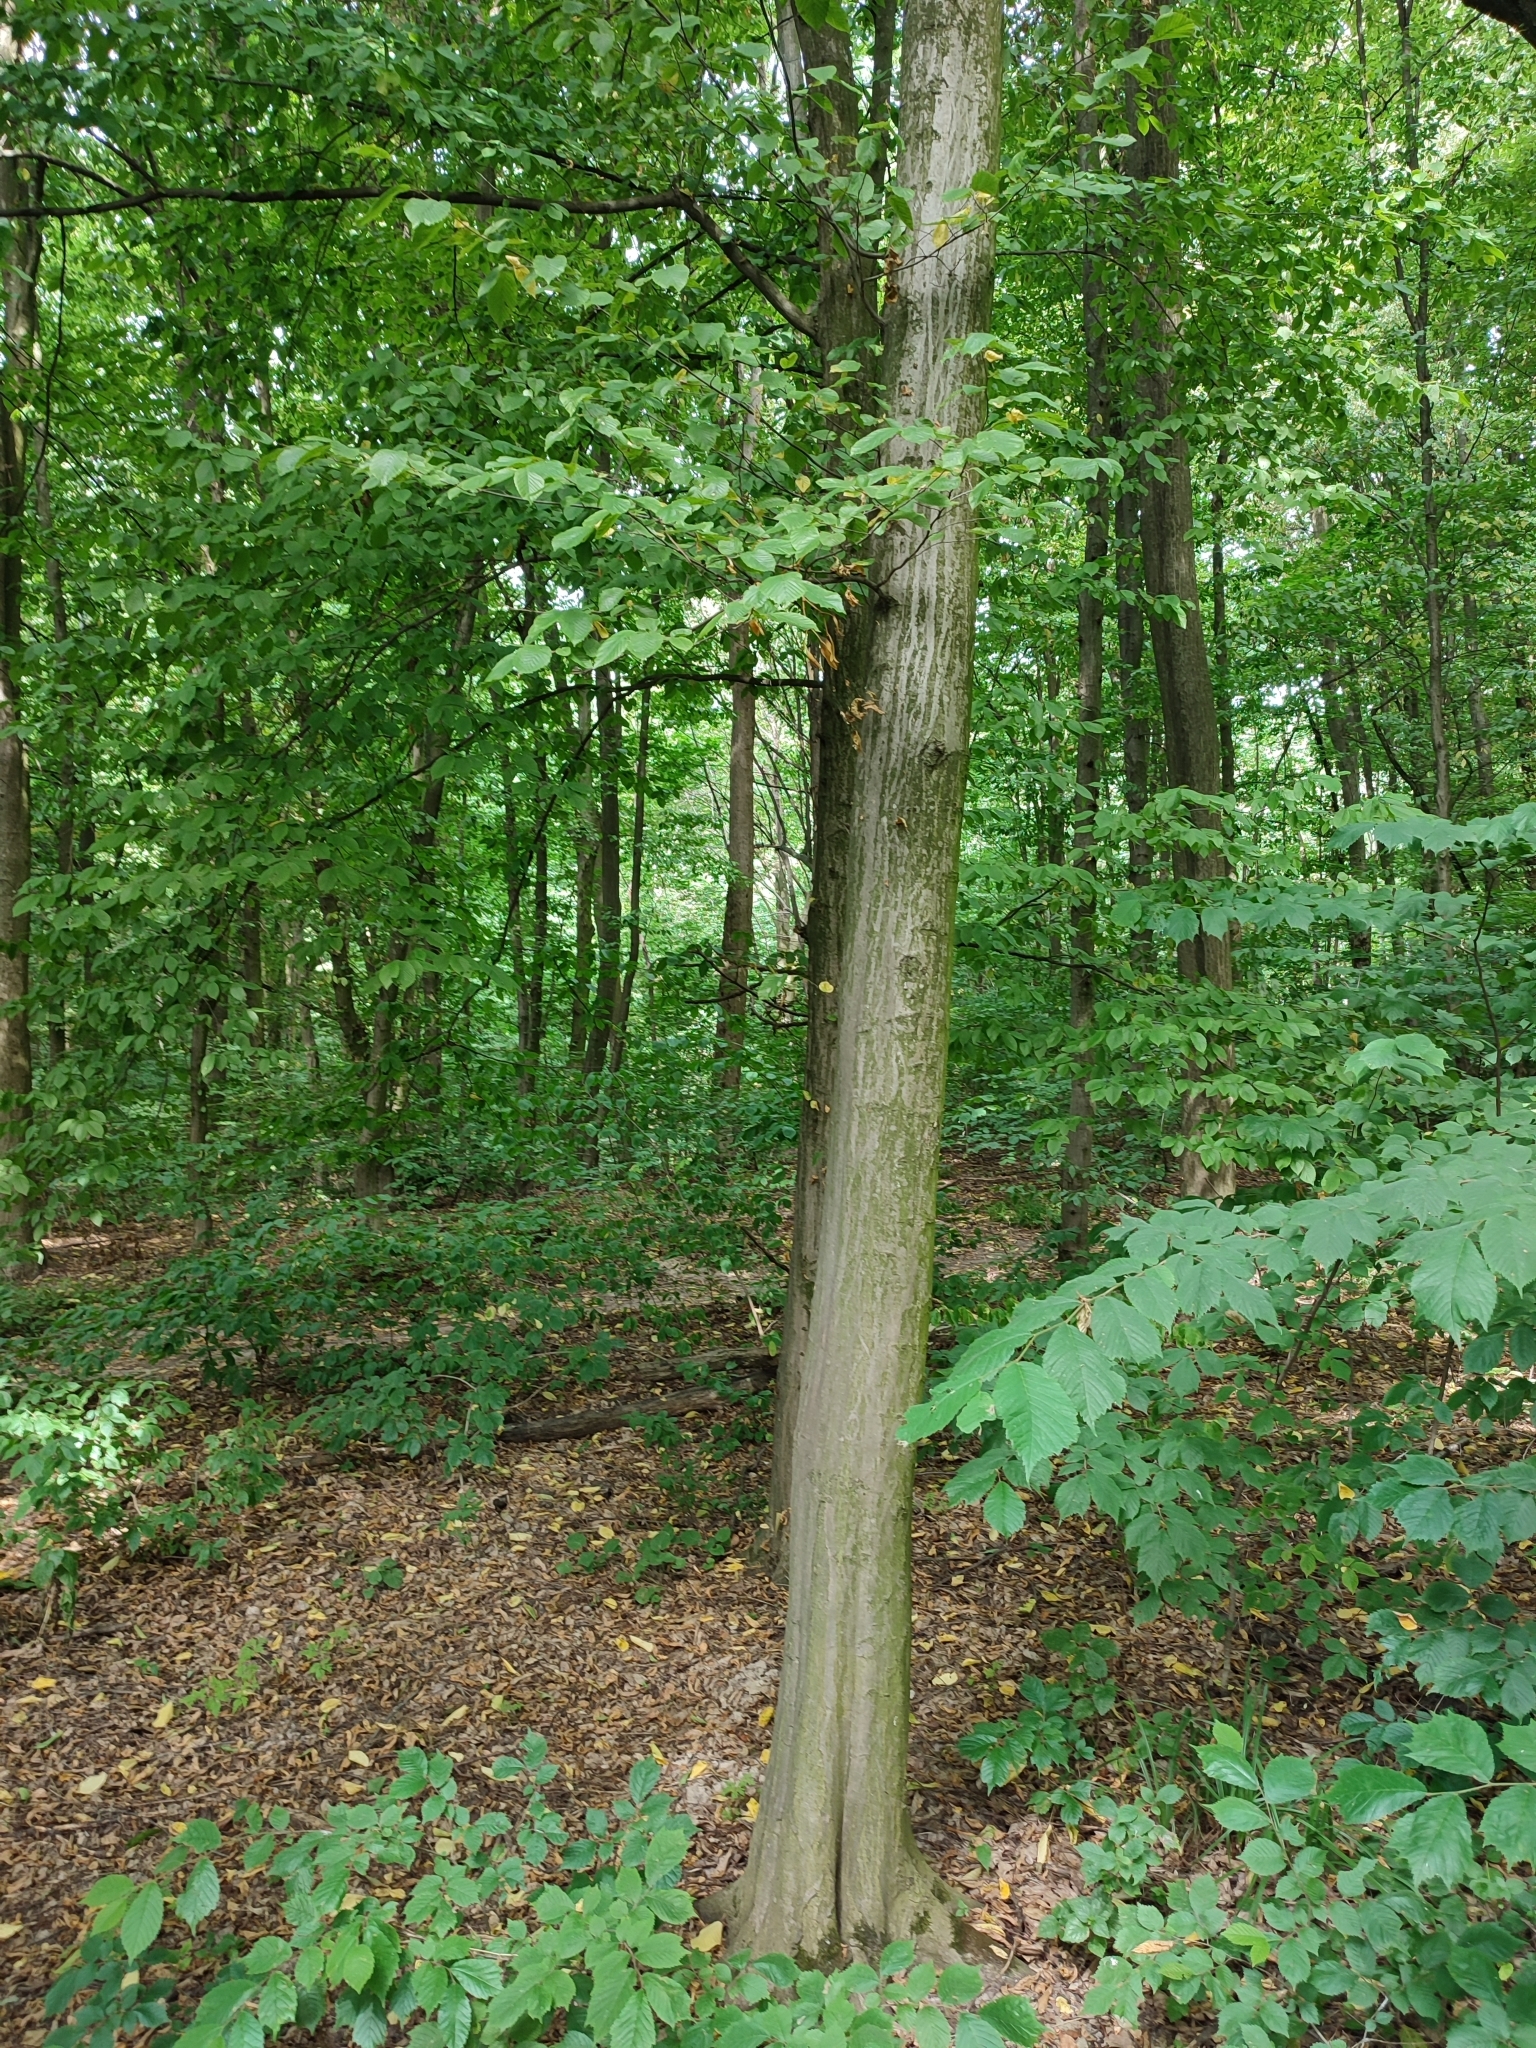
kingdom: Plantae
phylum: Tracheophyta
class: Magnoliopsida
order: Fagales
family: Betulaceae
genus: Carpinus
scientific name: Carpinus betulus
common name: Hornbeam
